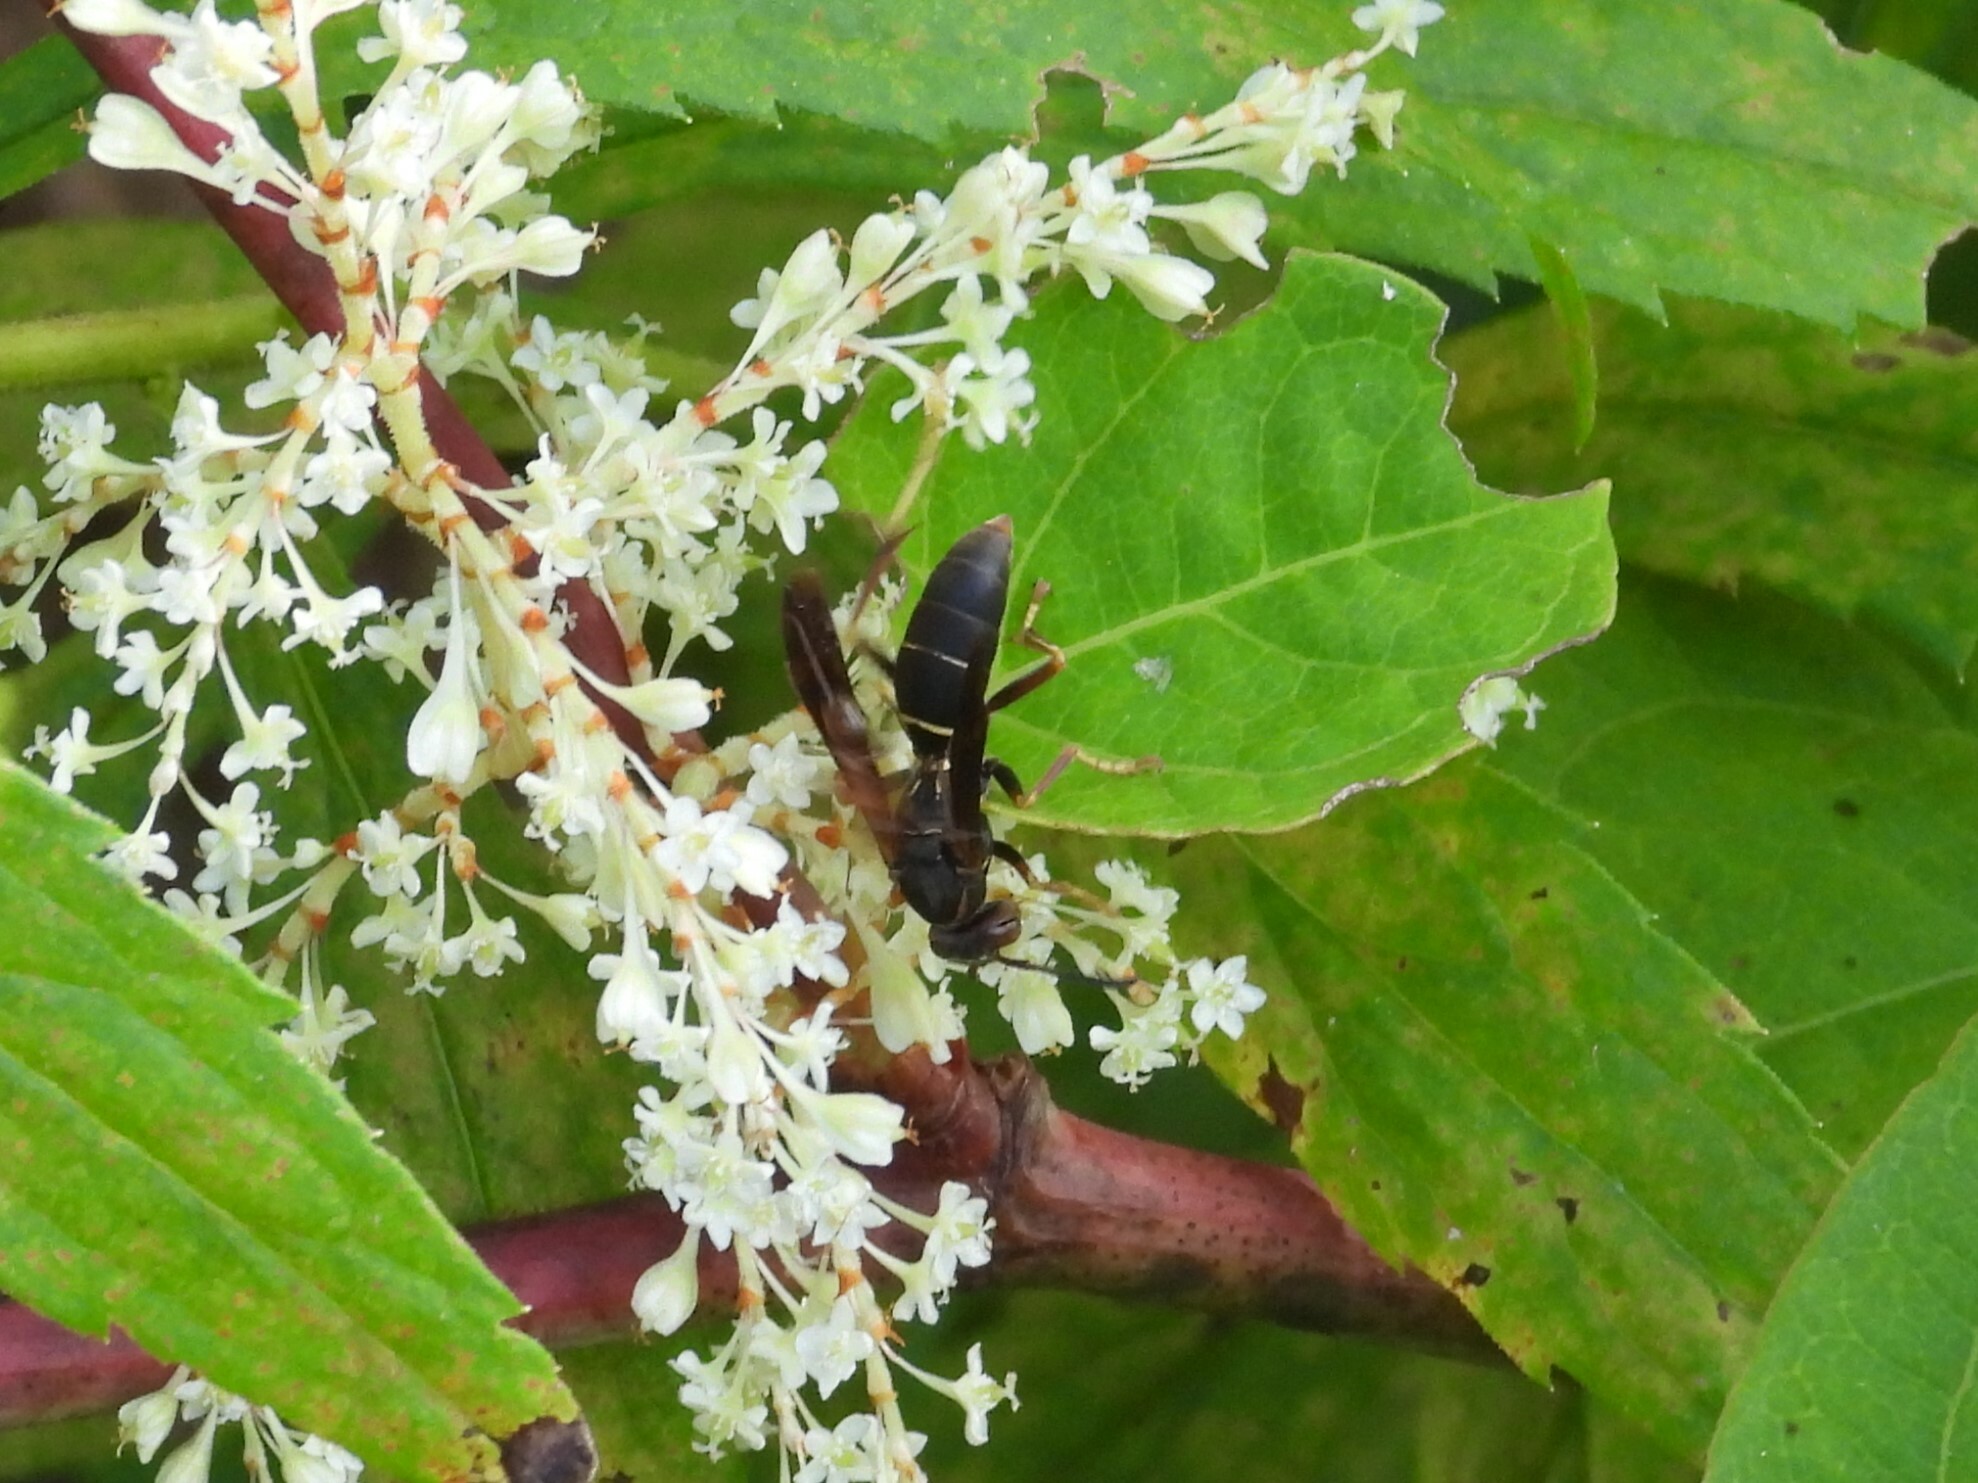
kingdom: Animalia
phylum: Arthropoda
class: Insecta
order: Hymenoptera
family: Eumenidae
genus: Polistes
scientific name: Polistes fuscatus
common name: Dark paper wasp
